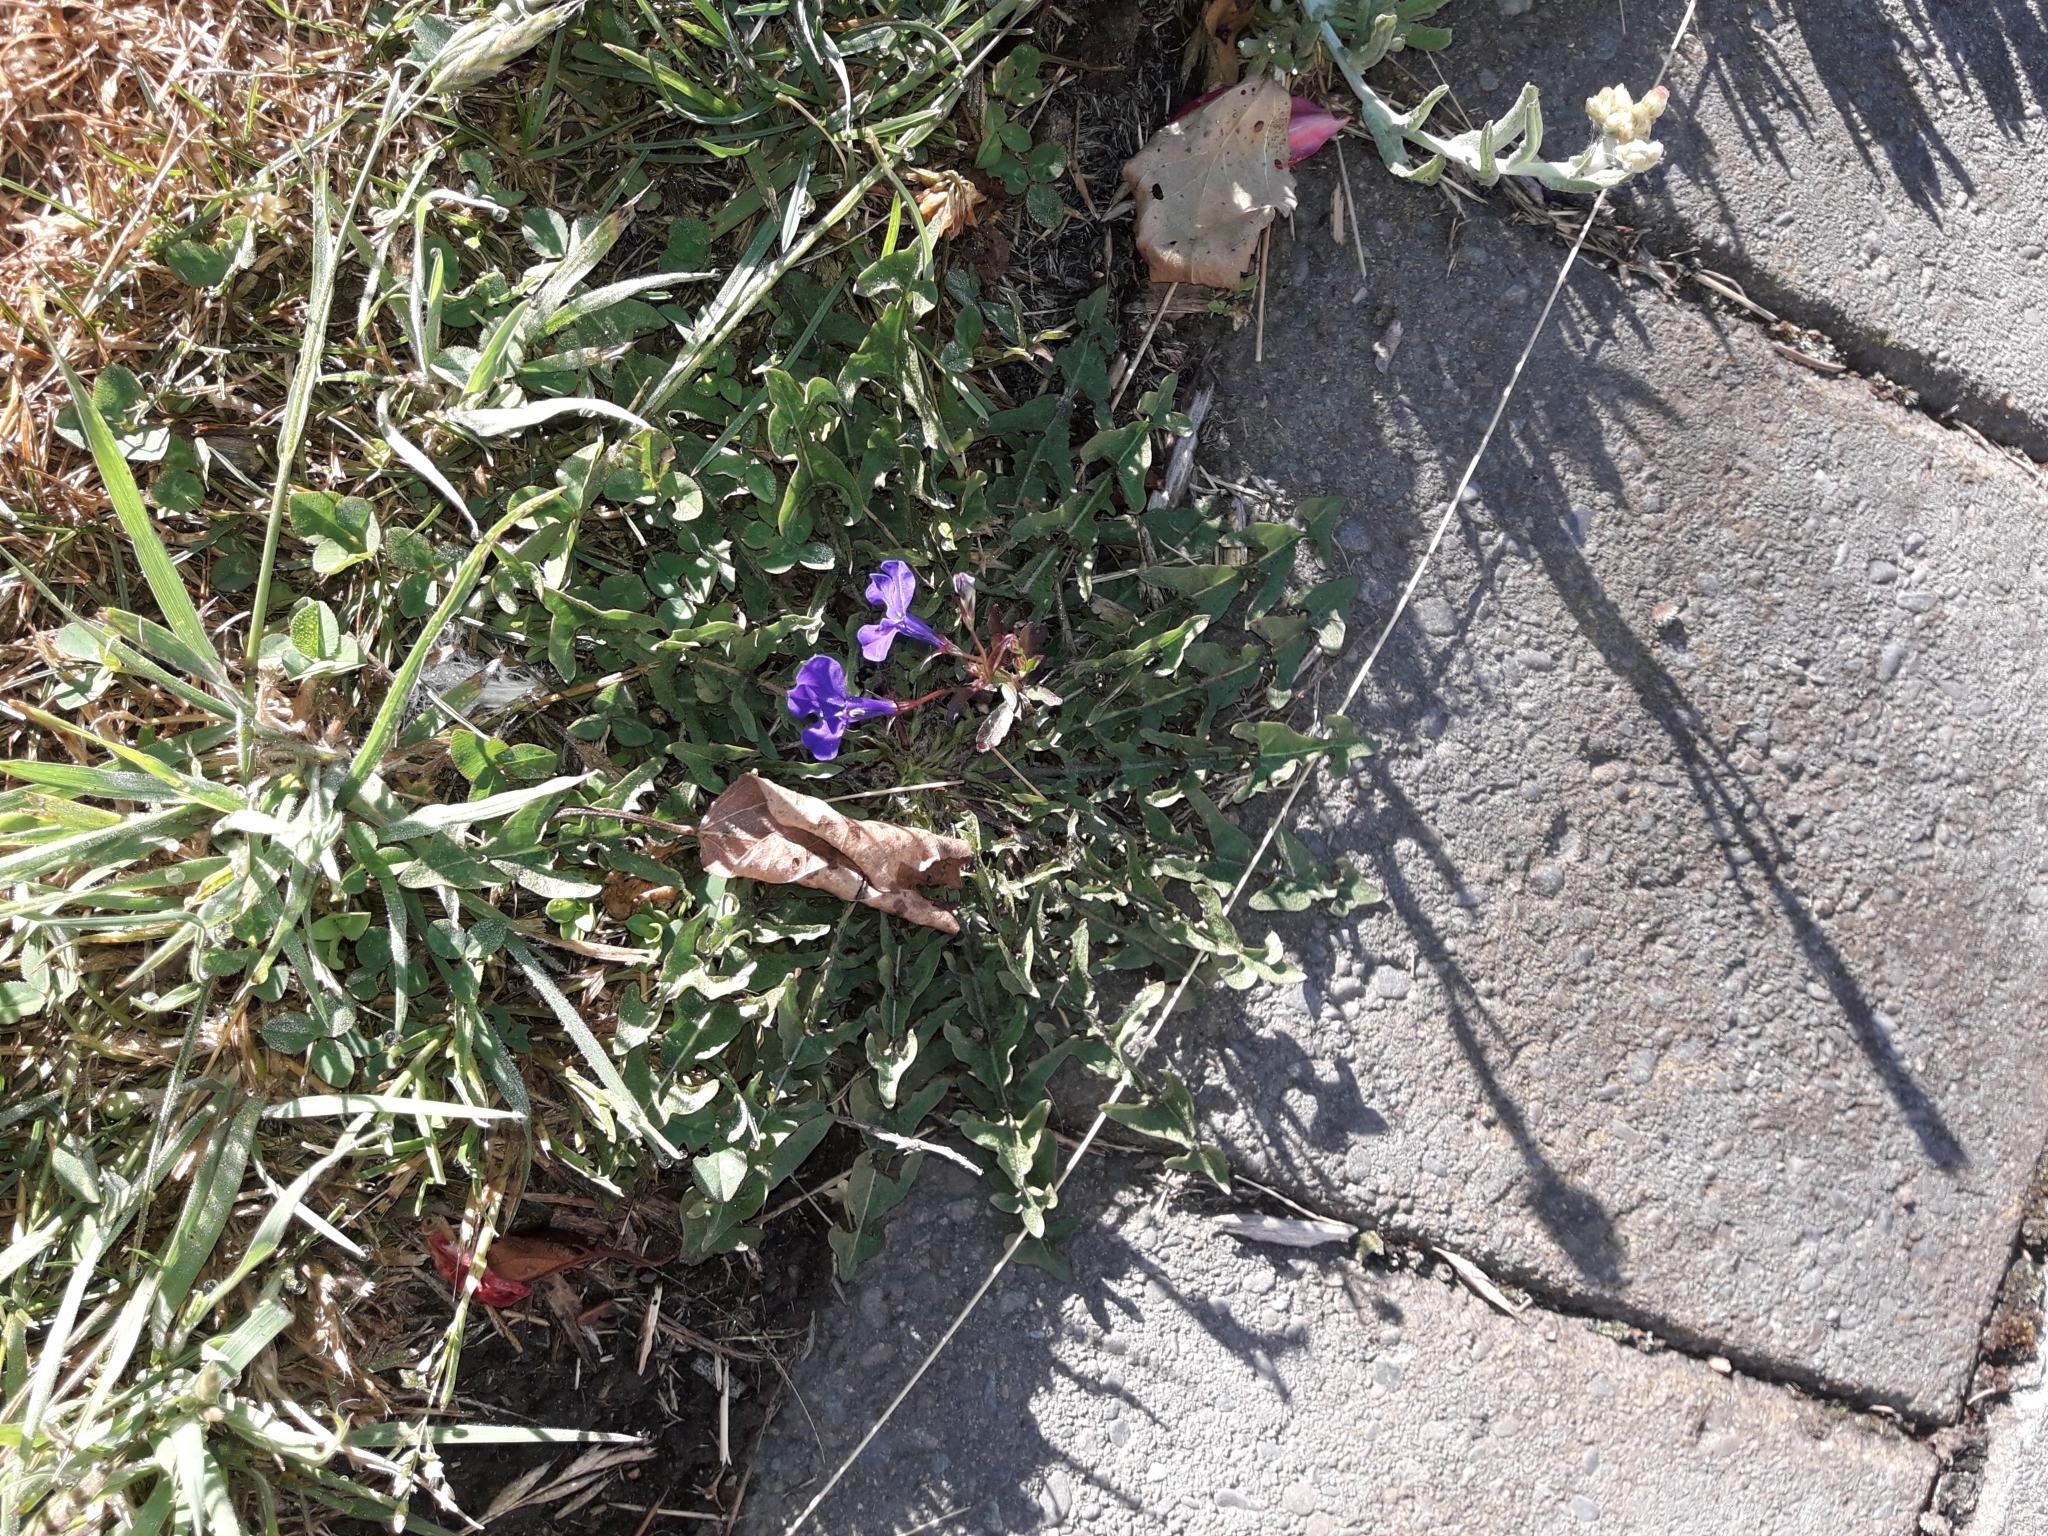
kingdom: Plantae
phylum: Tracheophyta
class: Magnoliopsida
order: Asterales
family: Campanulaceae
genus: Lobelia
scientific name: Lobelia erinus
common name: Edging lobelia
